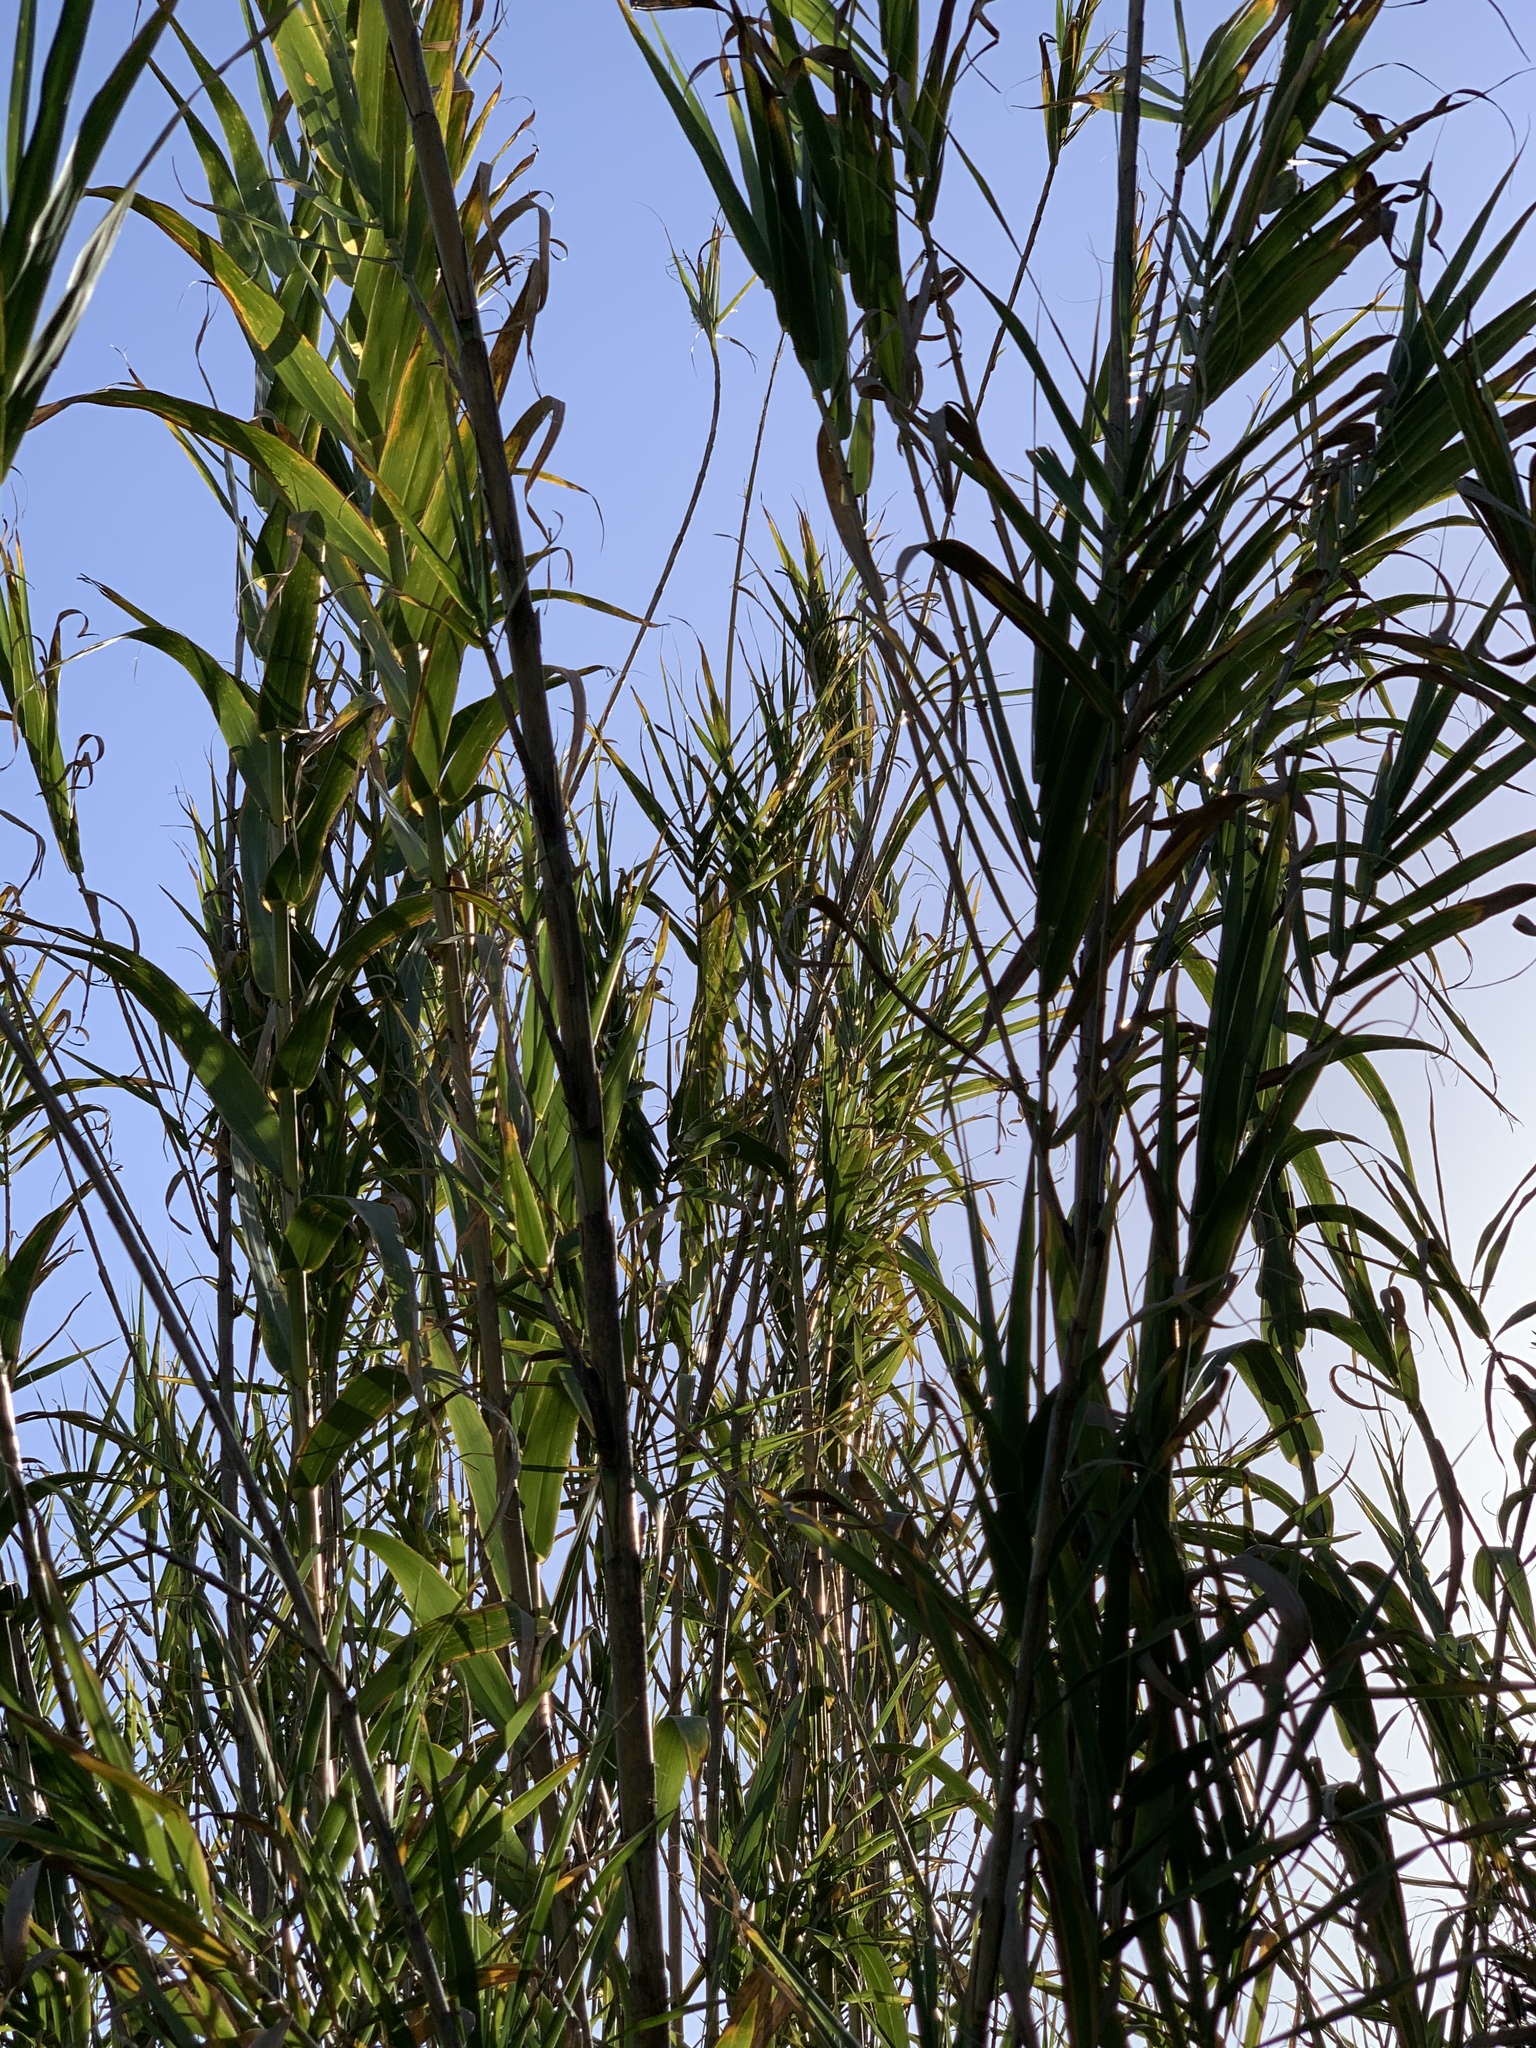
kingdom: Plantae
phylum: Tracheophyta
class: Liliopsida
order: Poales
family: Poaceae
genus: Arundo
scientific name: Arundo donax
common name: Giant reed
